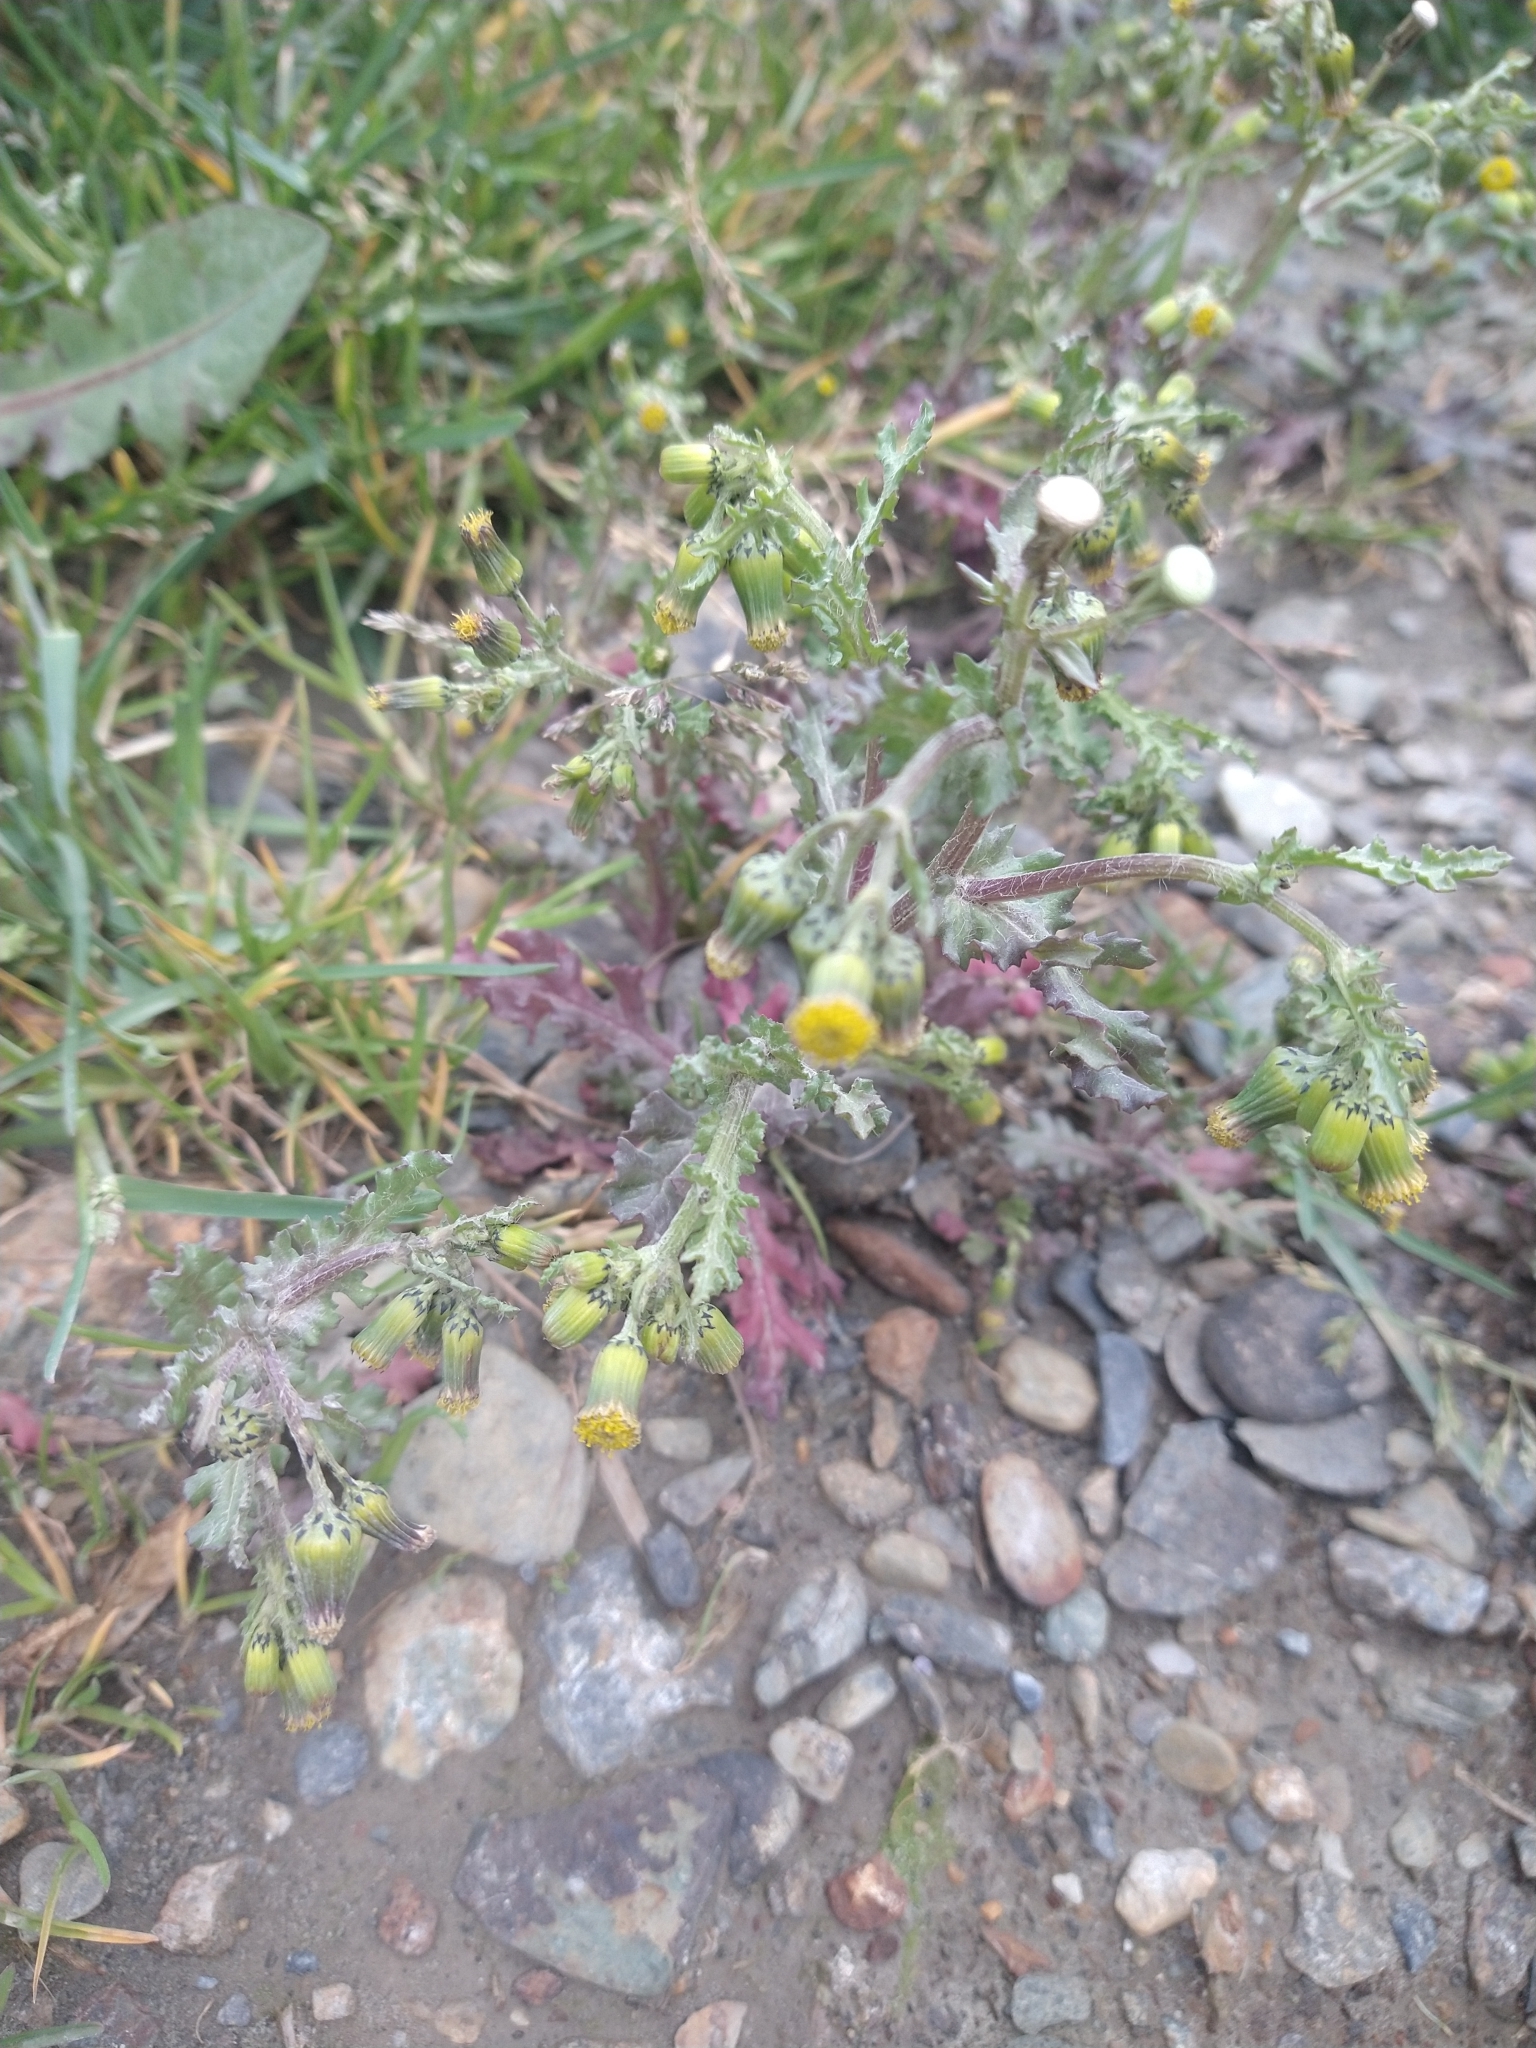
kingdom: Plantae
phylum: Tracheophyta
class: Magnoliopsida
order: Asterales
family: Asteraceae
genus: Senecio
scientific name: Senecio vulgaris
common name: Old-man-in-the-spring
